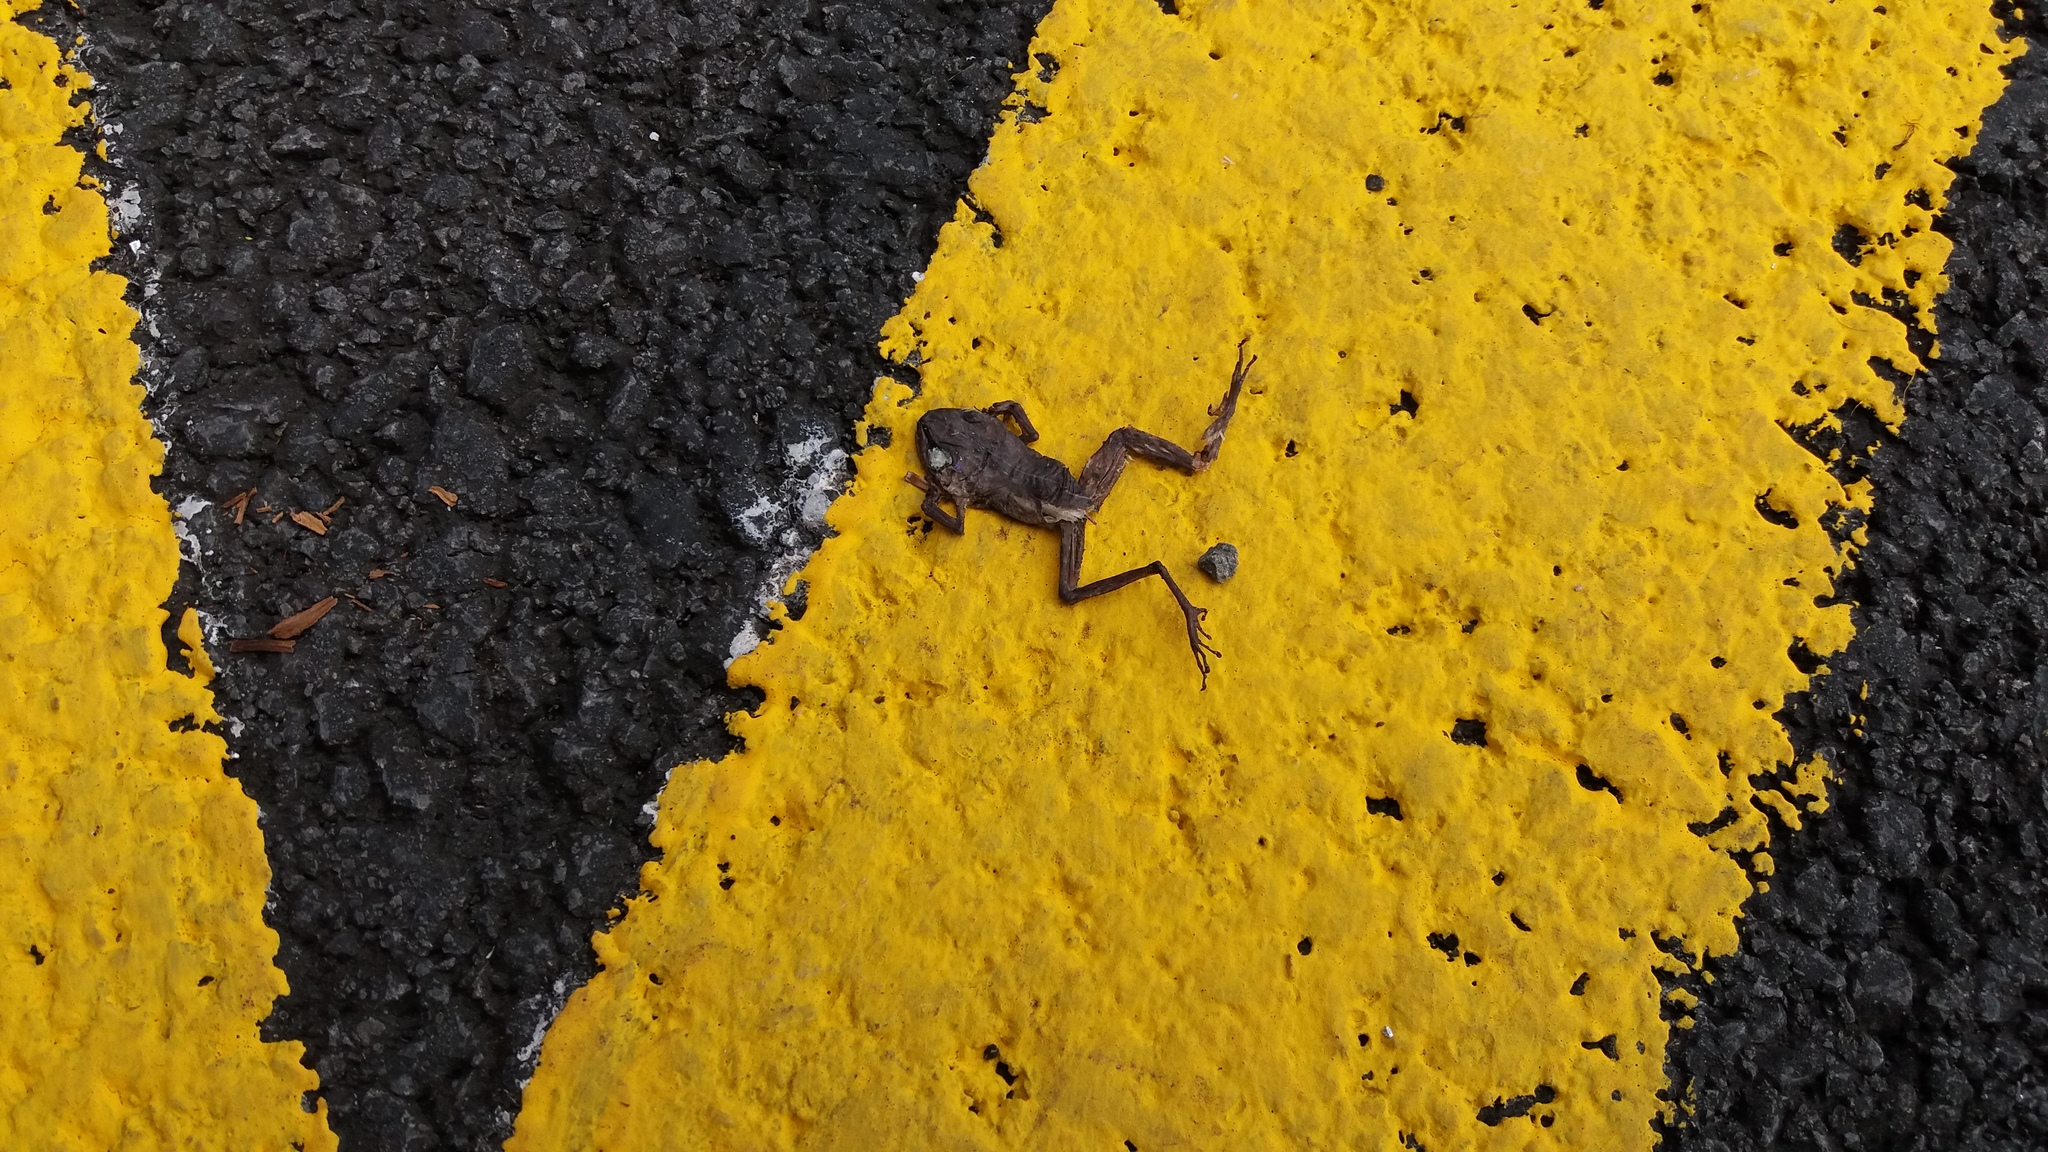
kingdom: Animalia
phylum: Chordata
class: Amphibia
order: Anura
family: Eleutherodactylidae
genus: Eleutherodactylus
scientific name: Eleutherodactylus coqui
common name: Coqui frog
